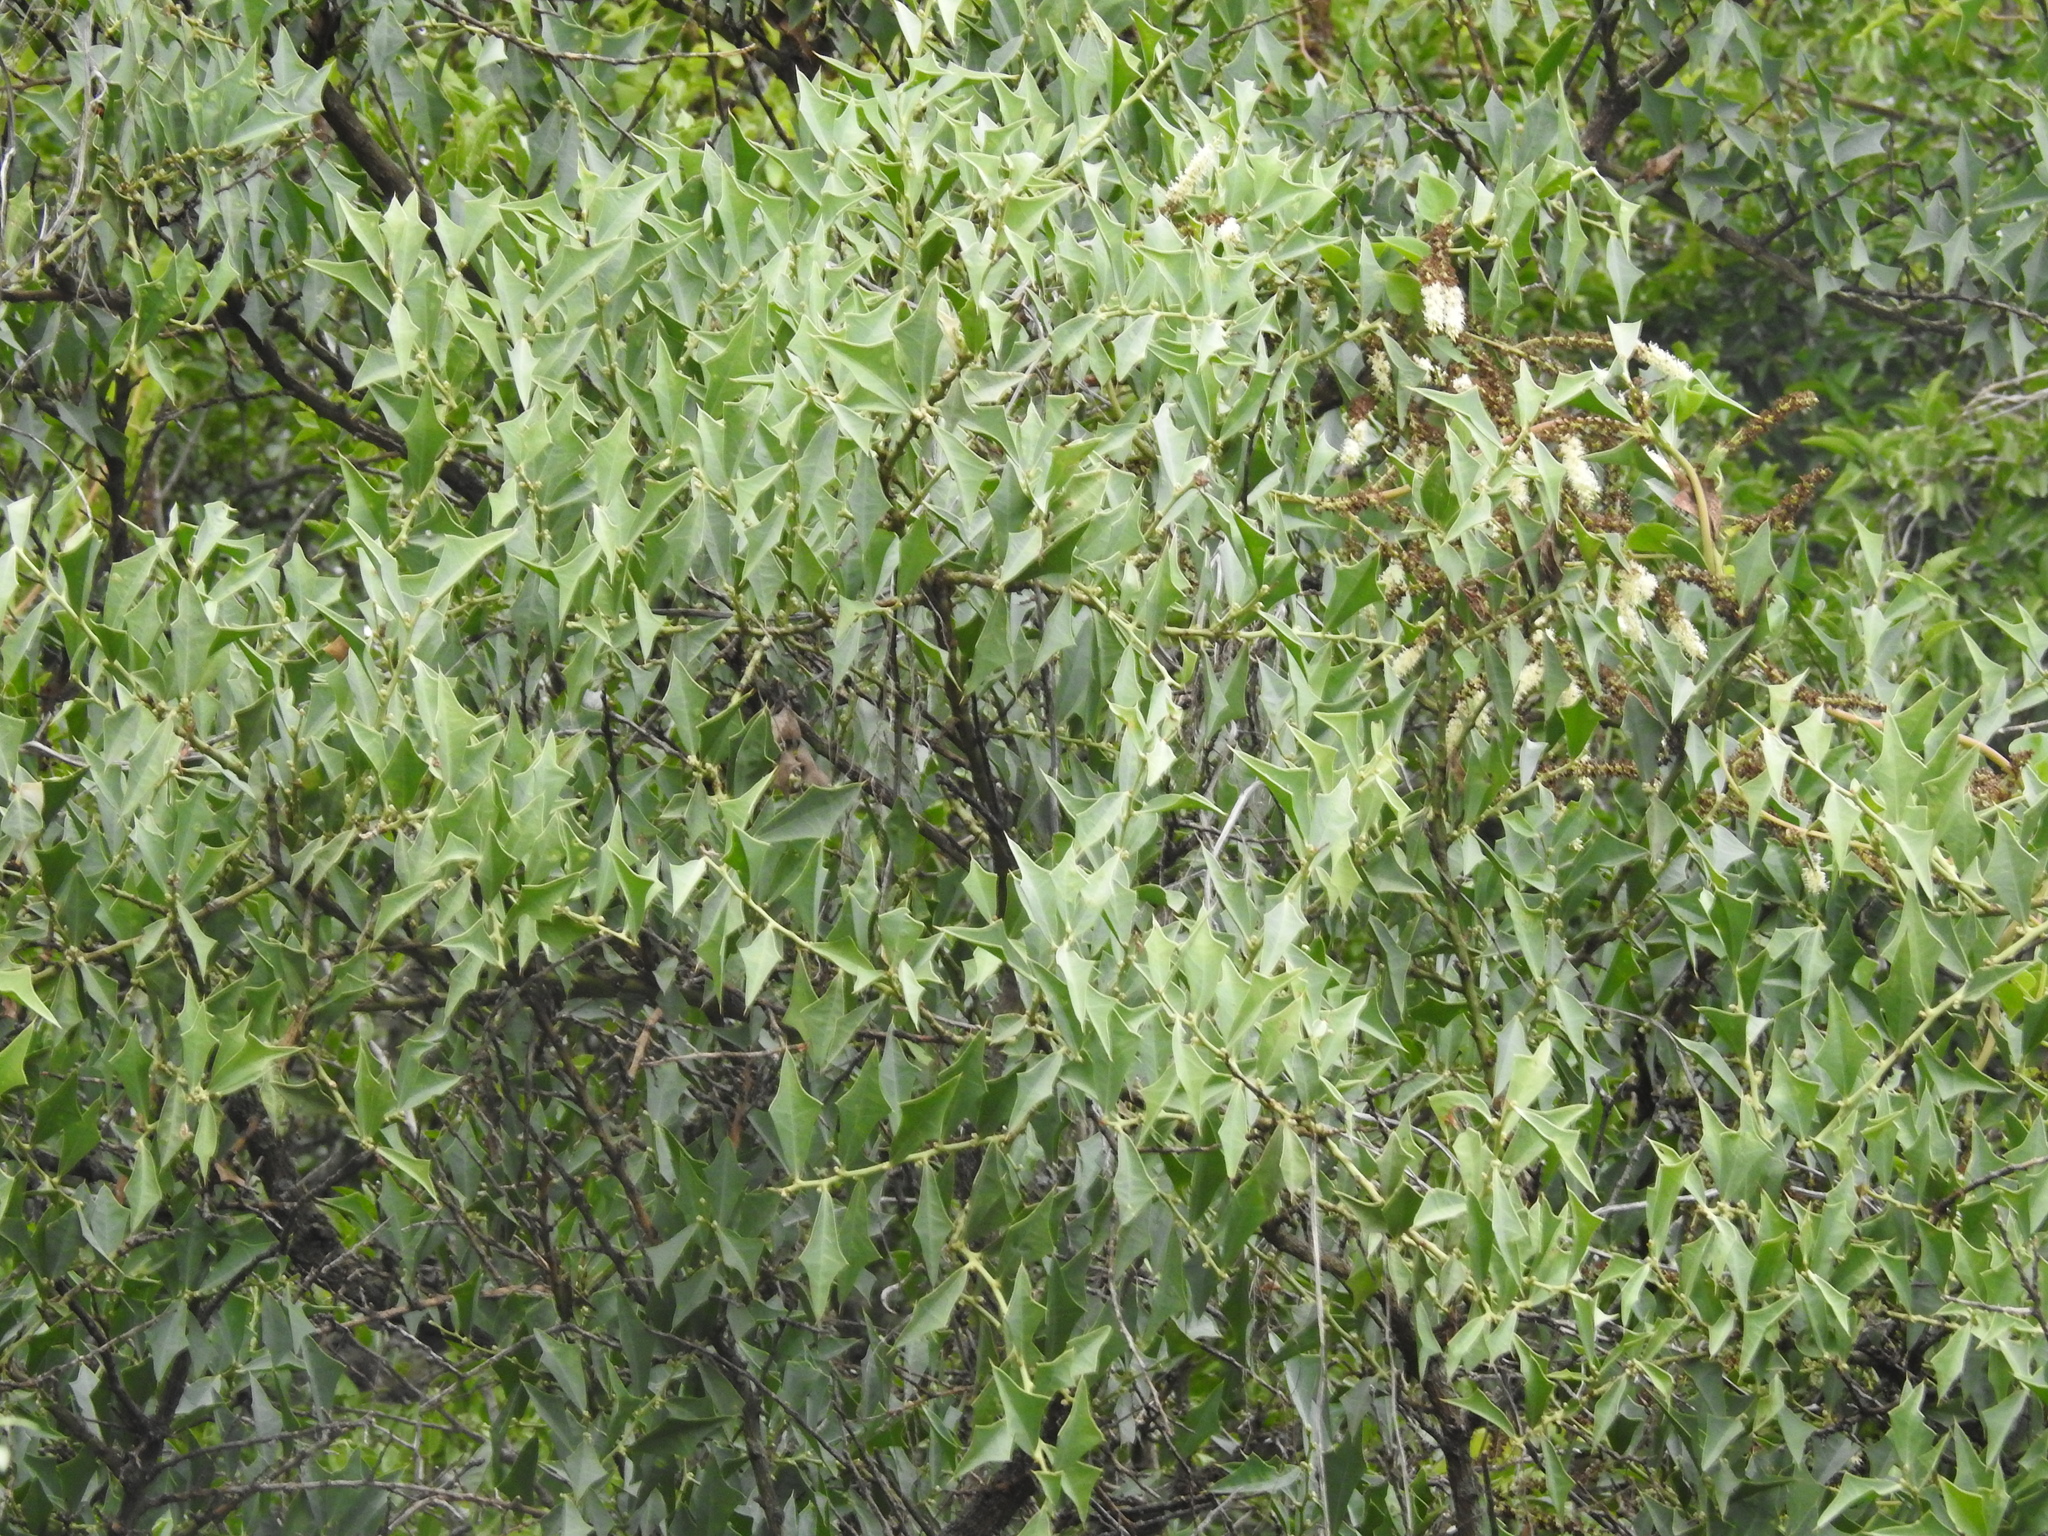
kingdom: Plantae
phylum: Tracheophyta
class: Magnoliopsida
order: Santalales
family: Cervantesiaceae
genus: Jodina
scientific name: Jodina rhombifolia
